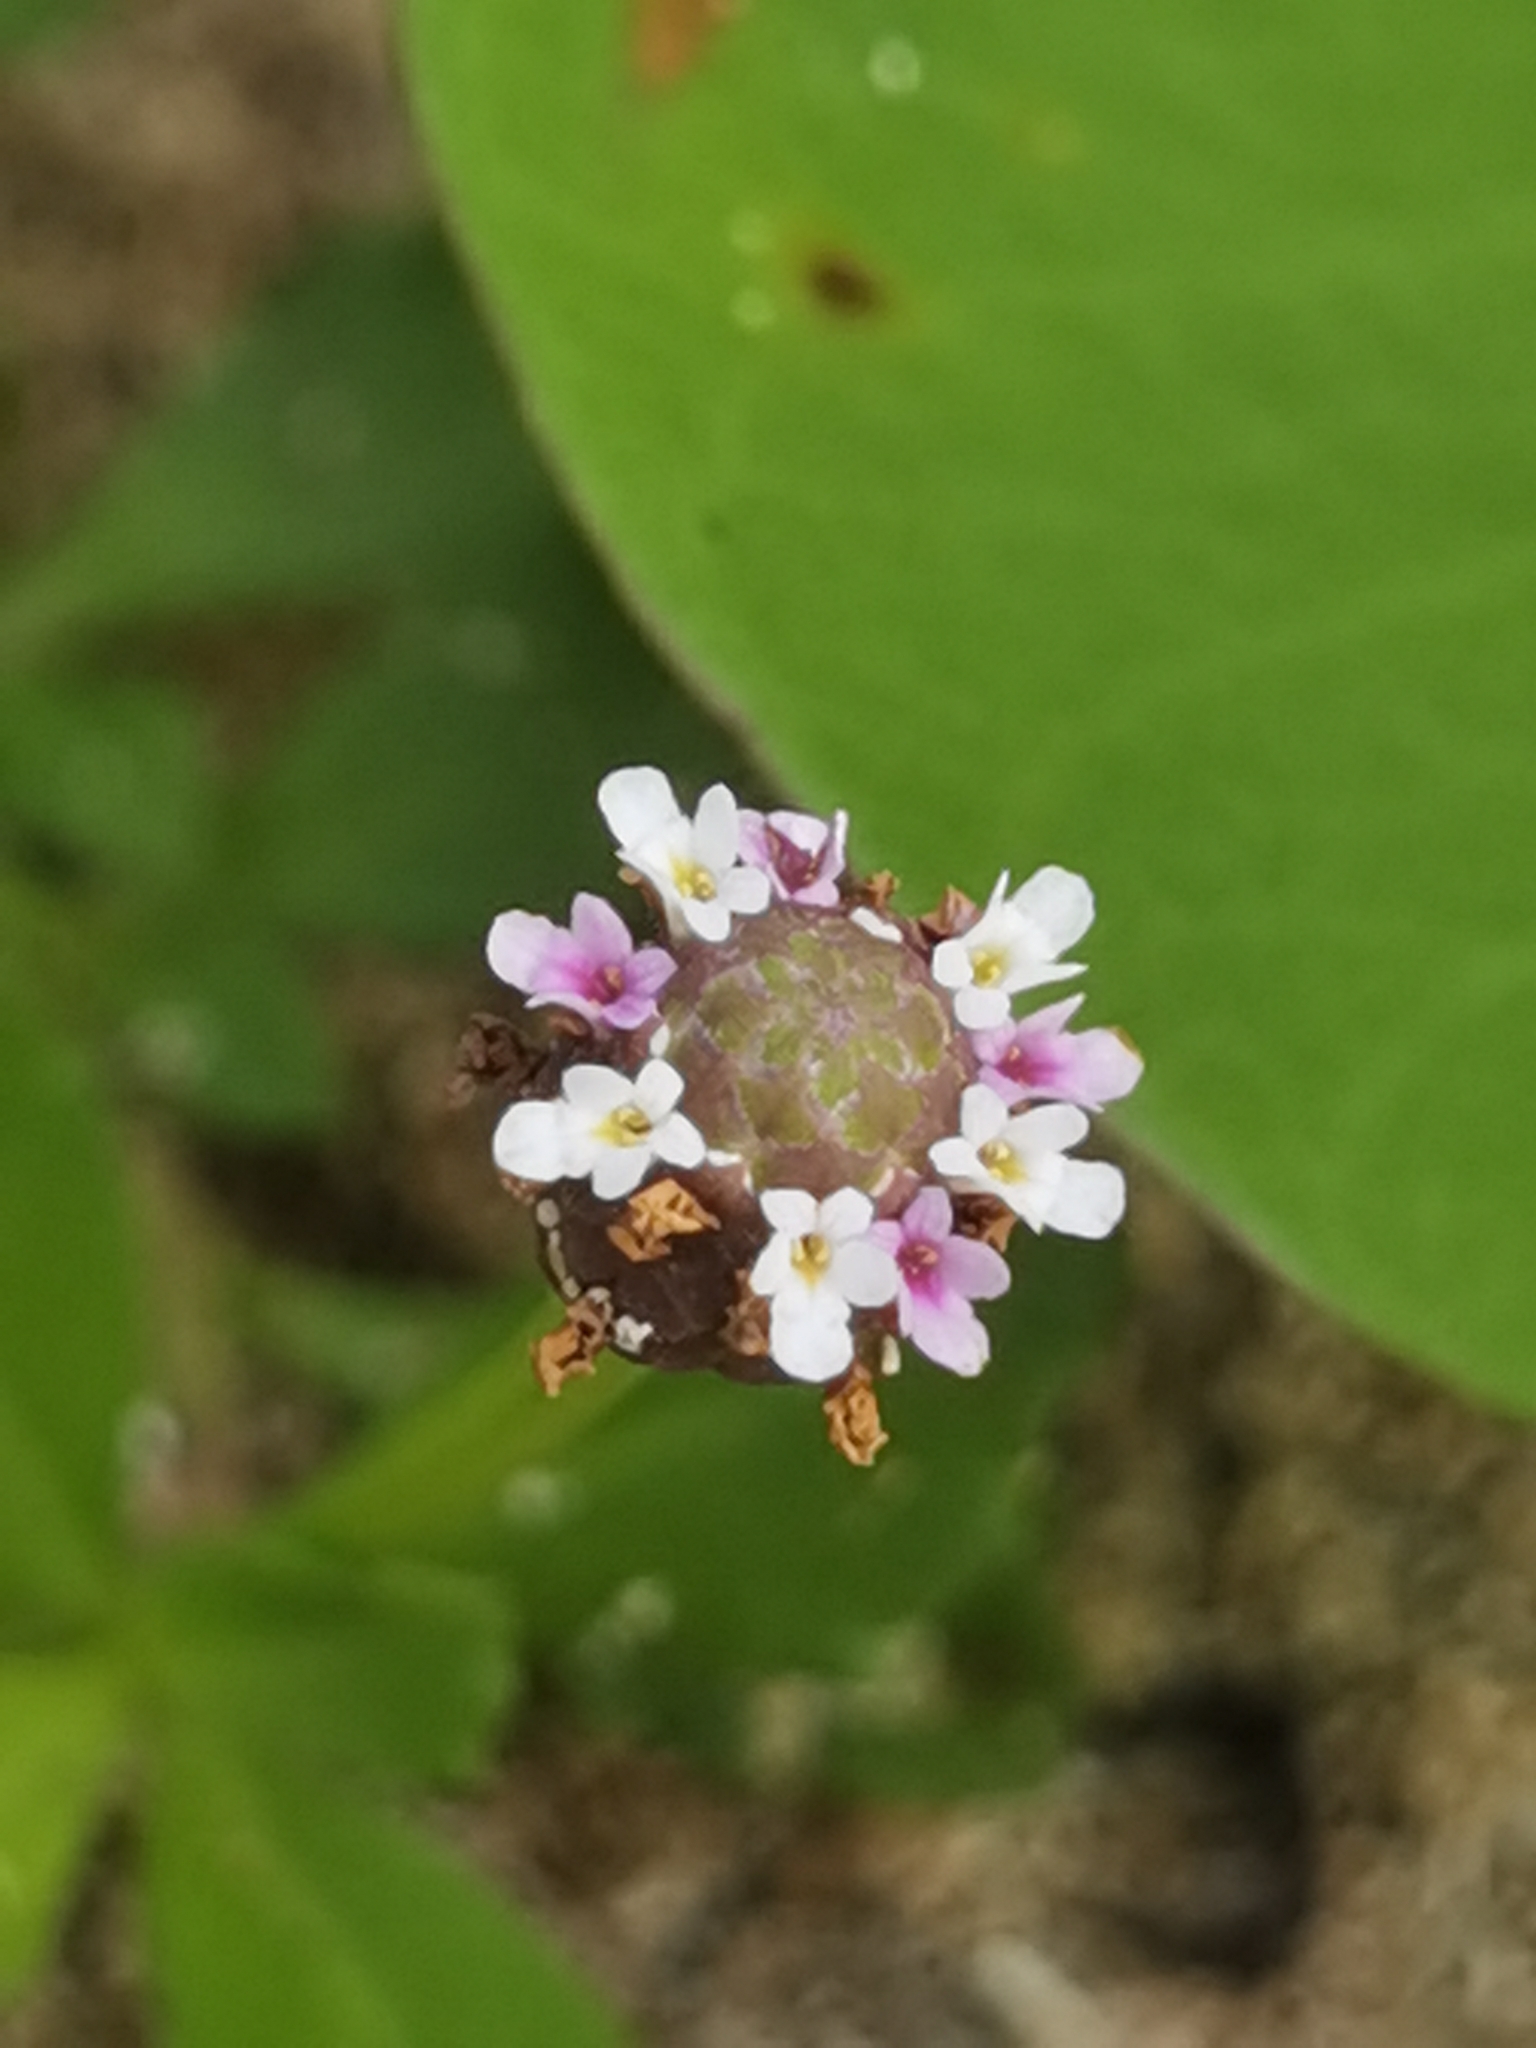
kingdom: Plantae
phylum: Tracheophyta
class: Magnoliopsida
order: Lamiales
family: Verbenaceae
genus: Phyla
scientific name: Phyla nodiflora
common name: Frogfruit
